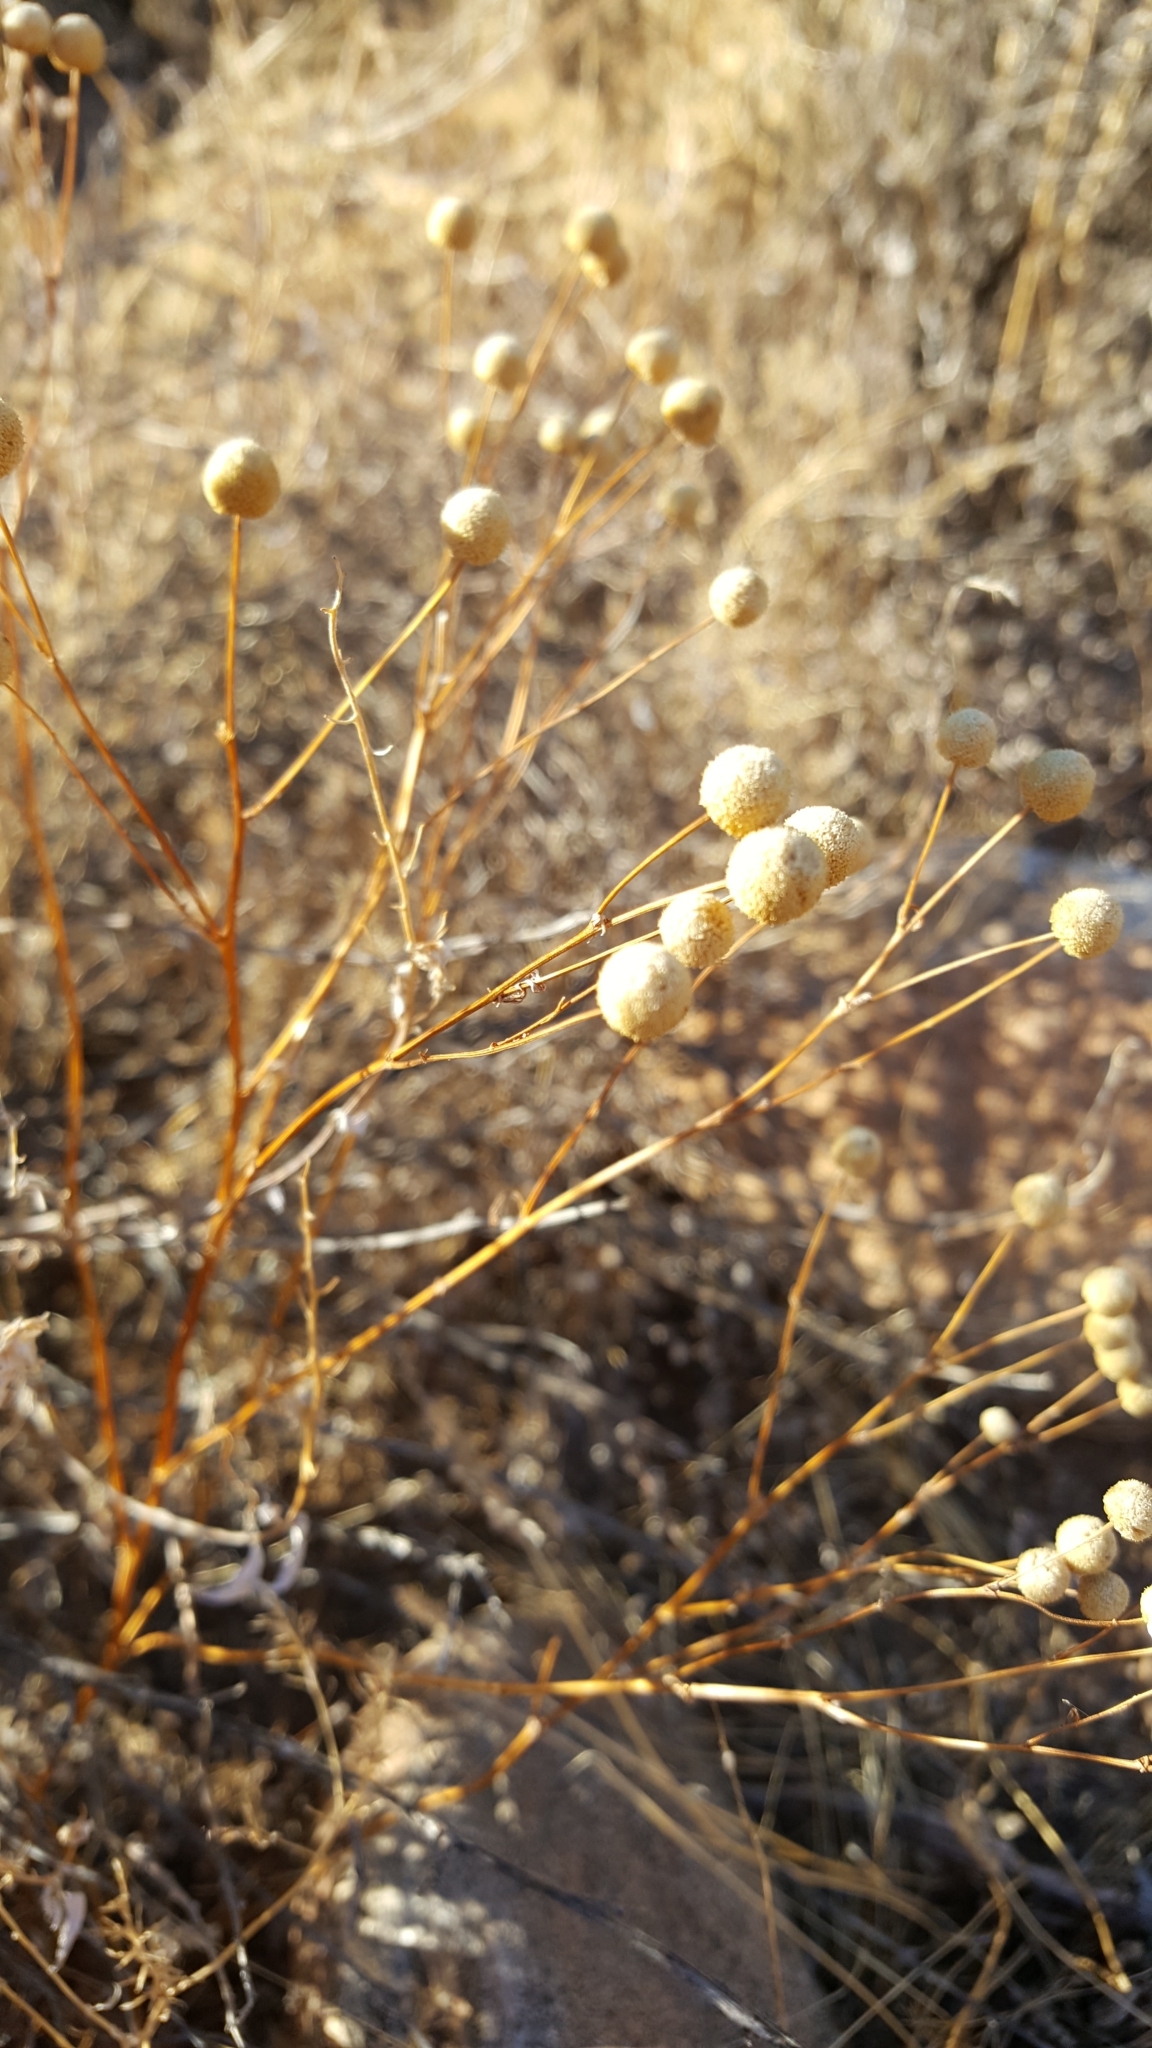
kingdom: Plantae
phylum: Tracheophyta
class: Magnoliopsida
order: Asterales
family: Asteraceae
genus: Oncosiphon
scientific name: Oncosiphon pilulifer
